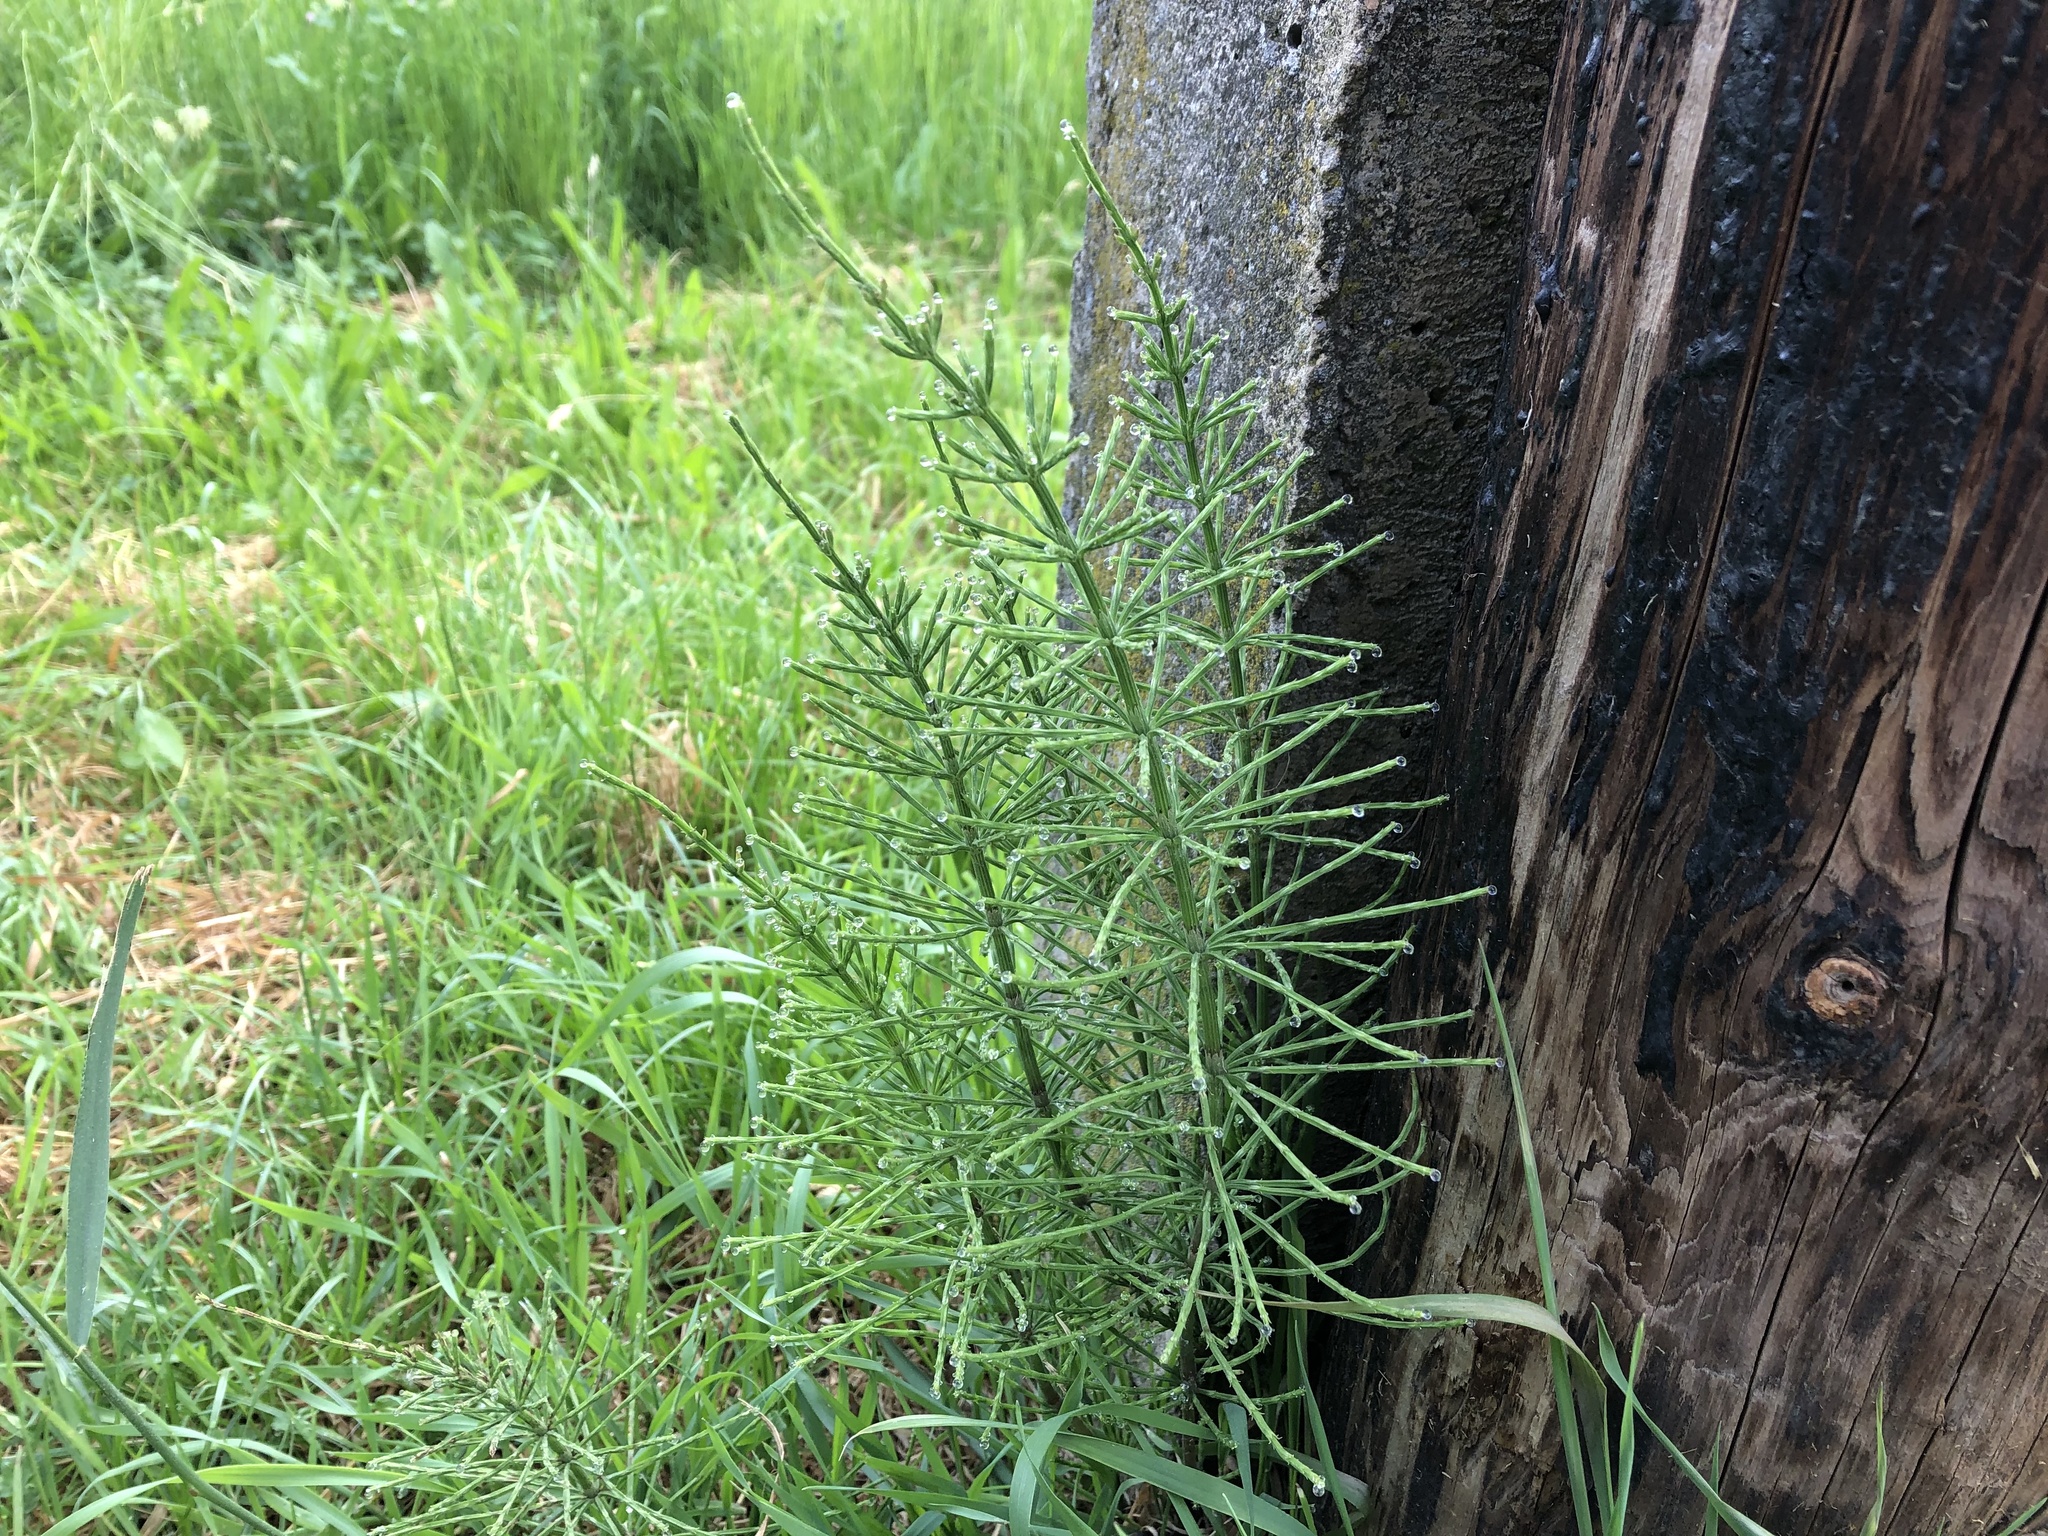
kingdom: Plantae
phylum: Tracheophyta
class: Polypodiopsida
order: Equisetales
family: Equisetaceae
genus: Equisetum
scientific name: Equisetum arvense
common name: Field horsetail
